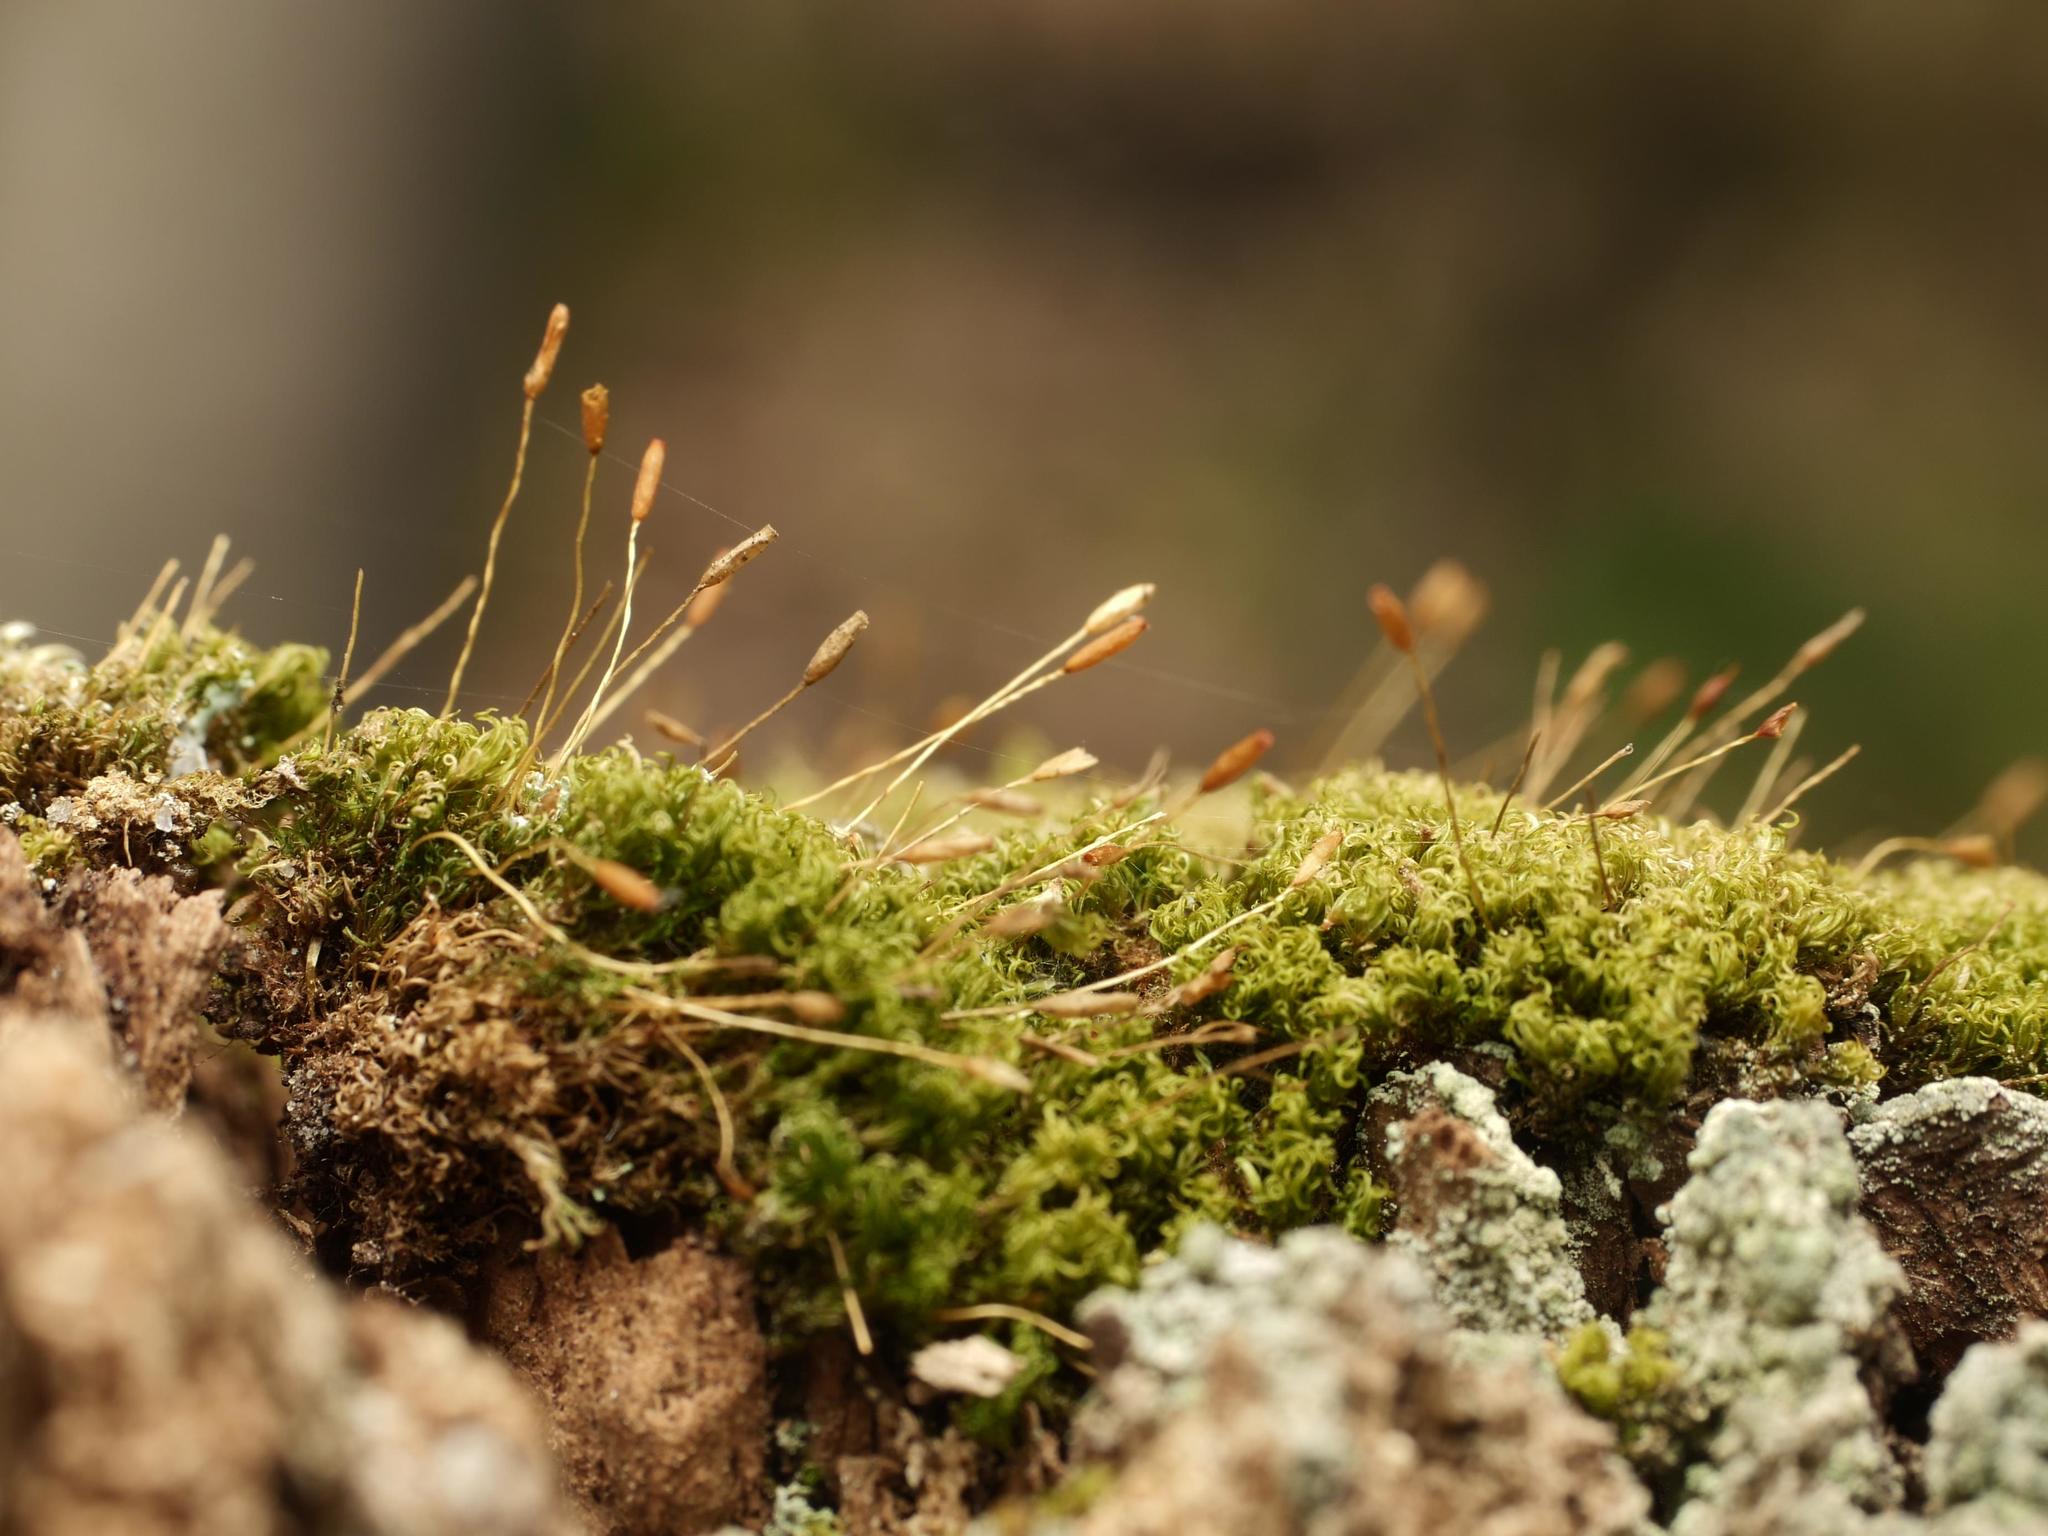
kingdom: Plantae
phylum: Bryophyta
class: Bryopsida
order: Dicranales
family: Rhabdoweisiaceae
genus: Dicranoweisia
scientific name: Dicranoweisia cirrata
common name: Common pincushion
